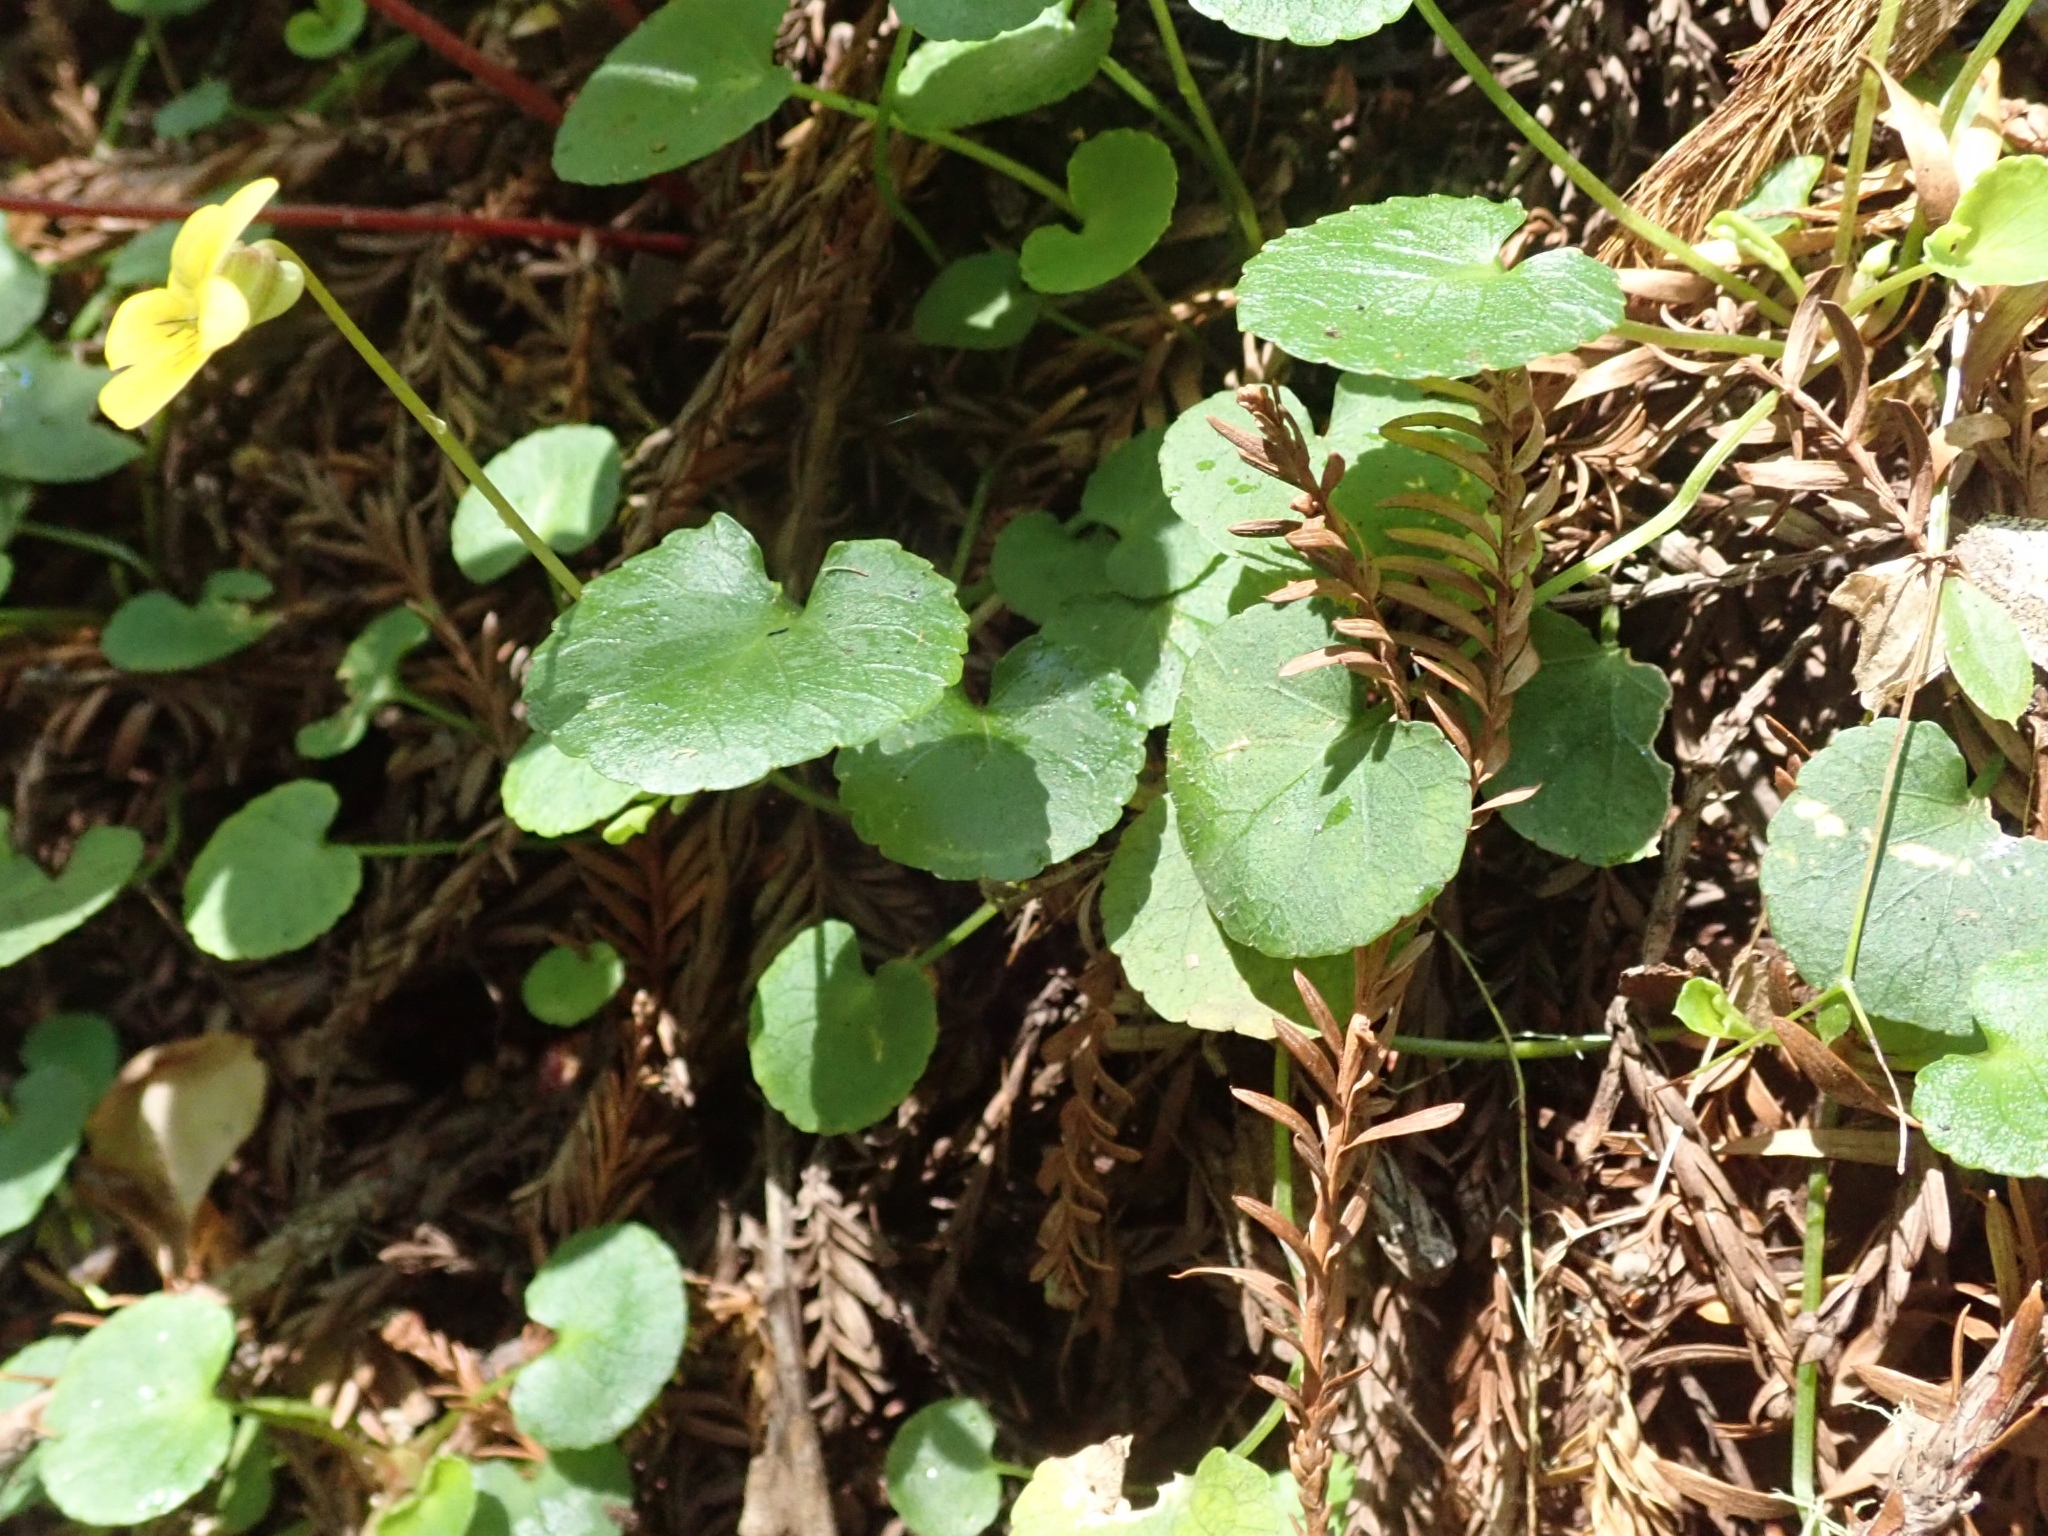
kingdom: Plantae
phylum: Tracheophyta
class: Magnoliopsida
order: Malpighiales
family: Violaceae
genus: Viola
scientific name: Viola sempervirens
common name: Evergreen violet
